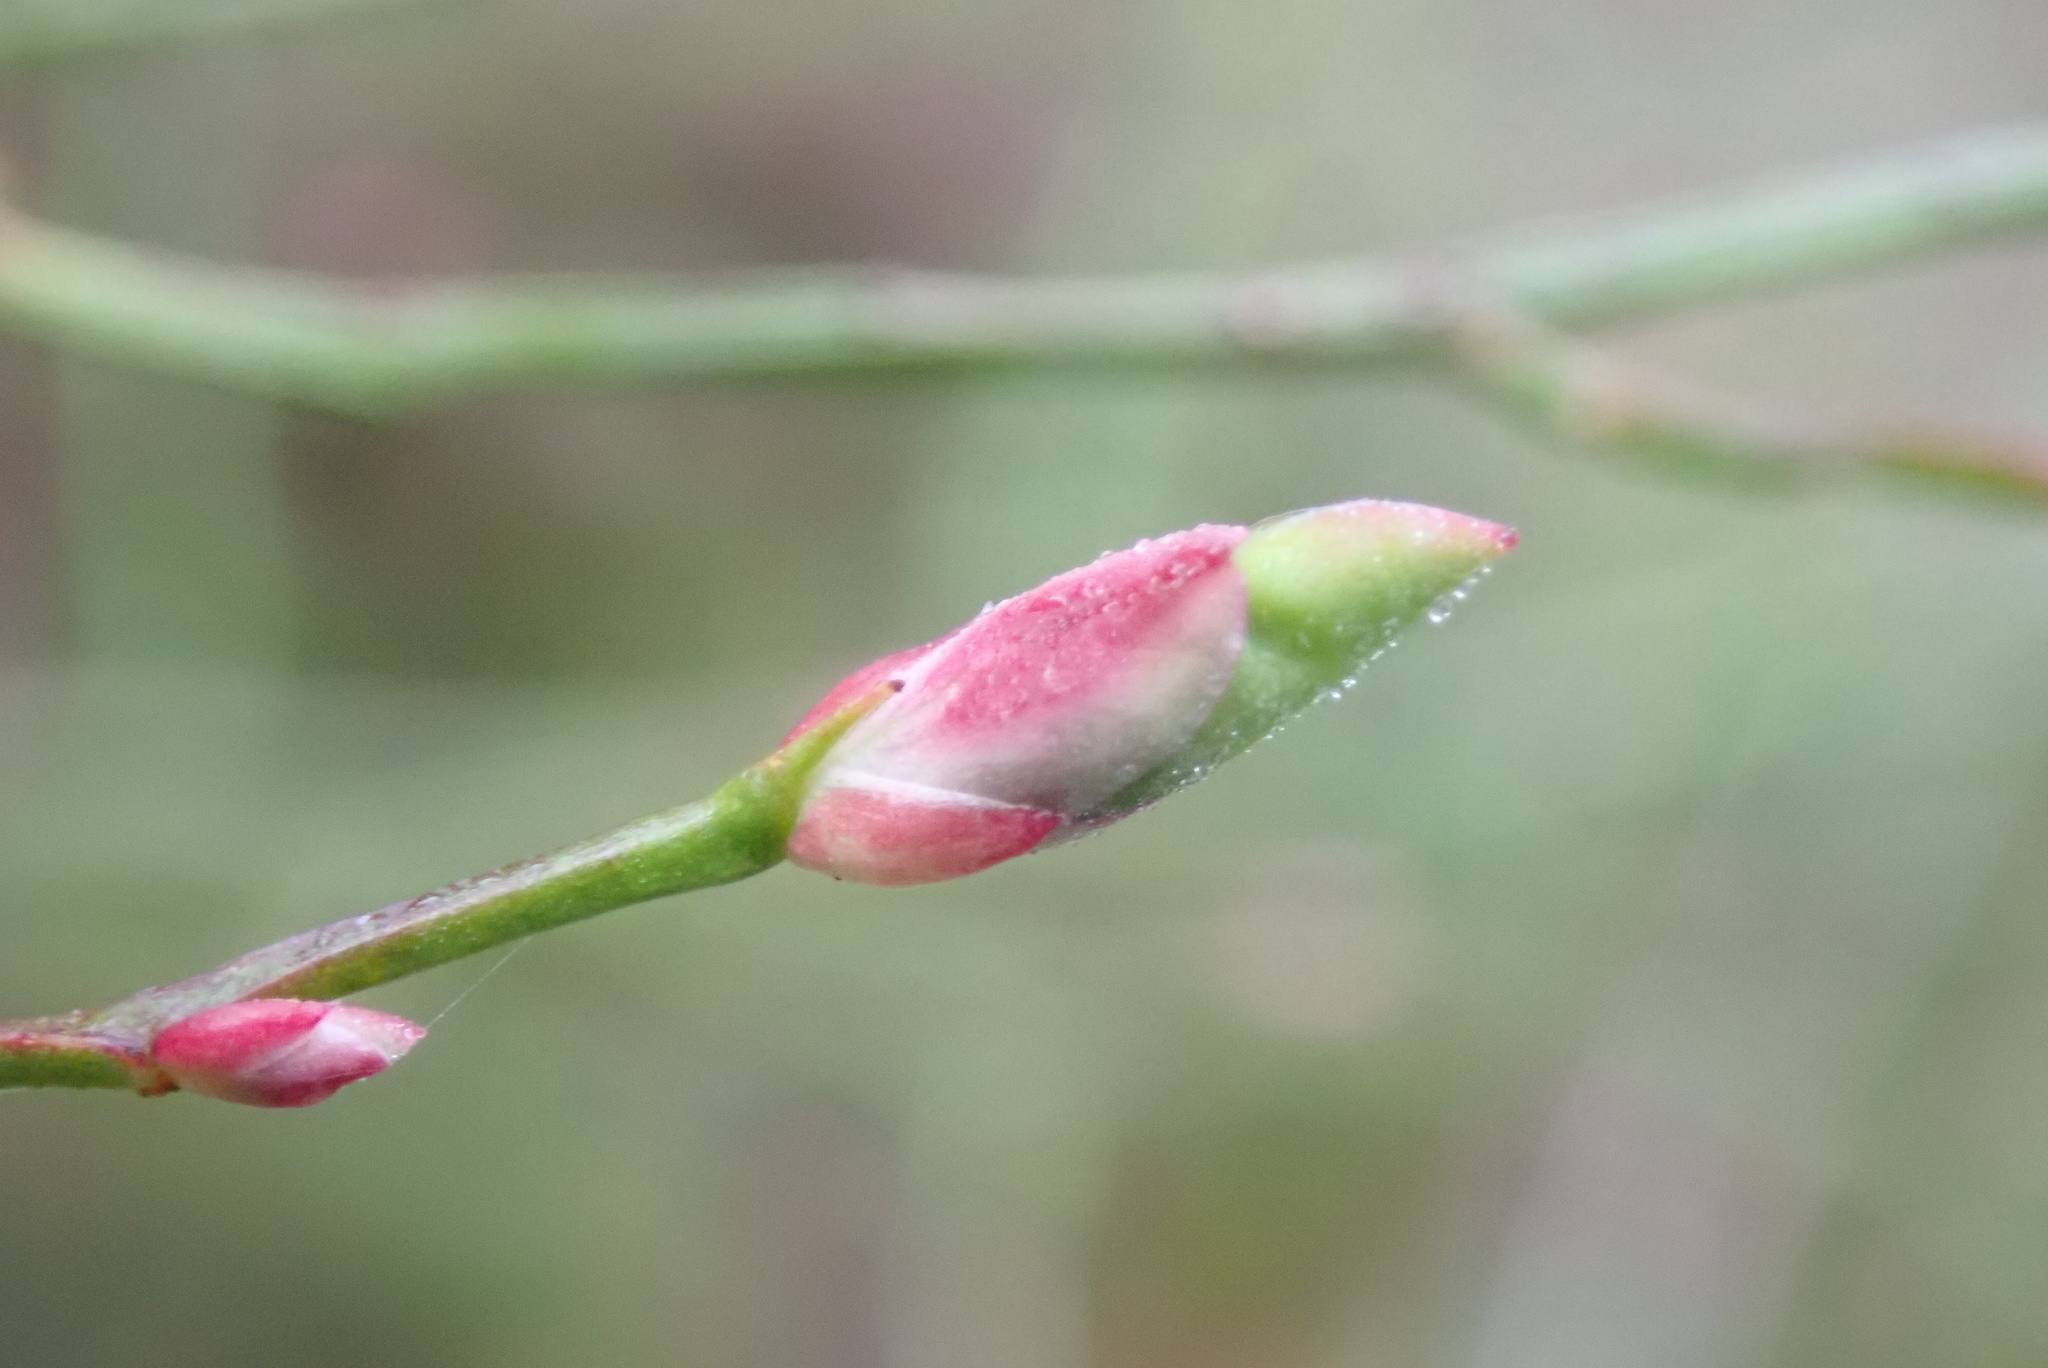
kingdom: Plantae
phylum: Tracheophyta
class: Magnoliopsida
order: Ericales
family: Ericaceae
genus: Vaccinium
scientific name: Vaccinium parvifolium
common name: Red-huckleberry
